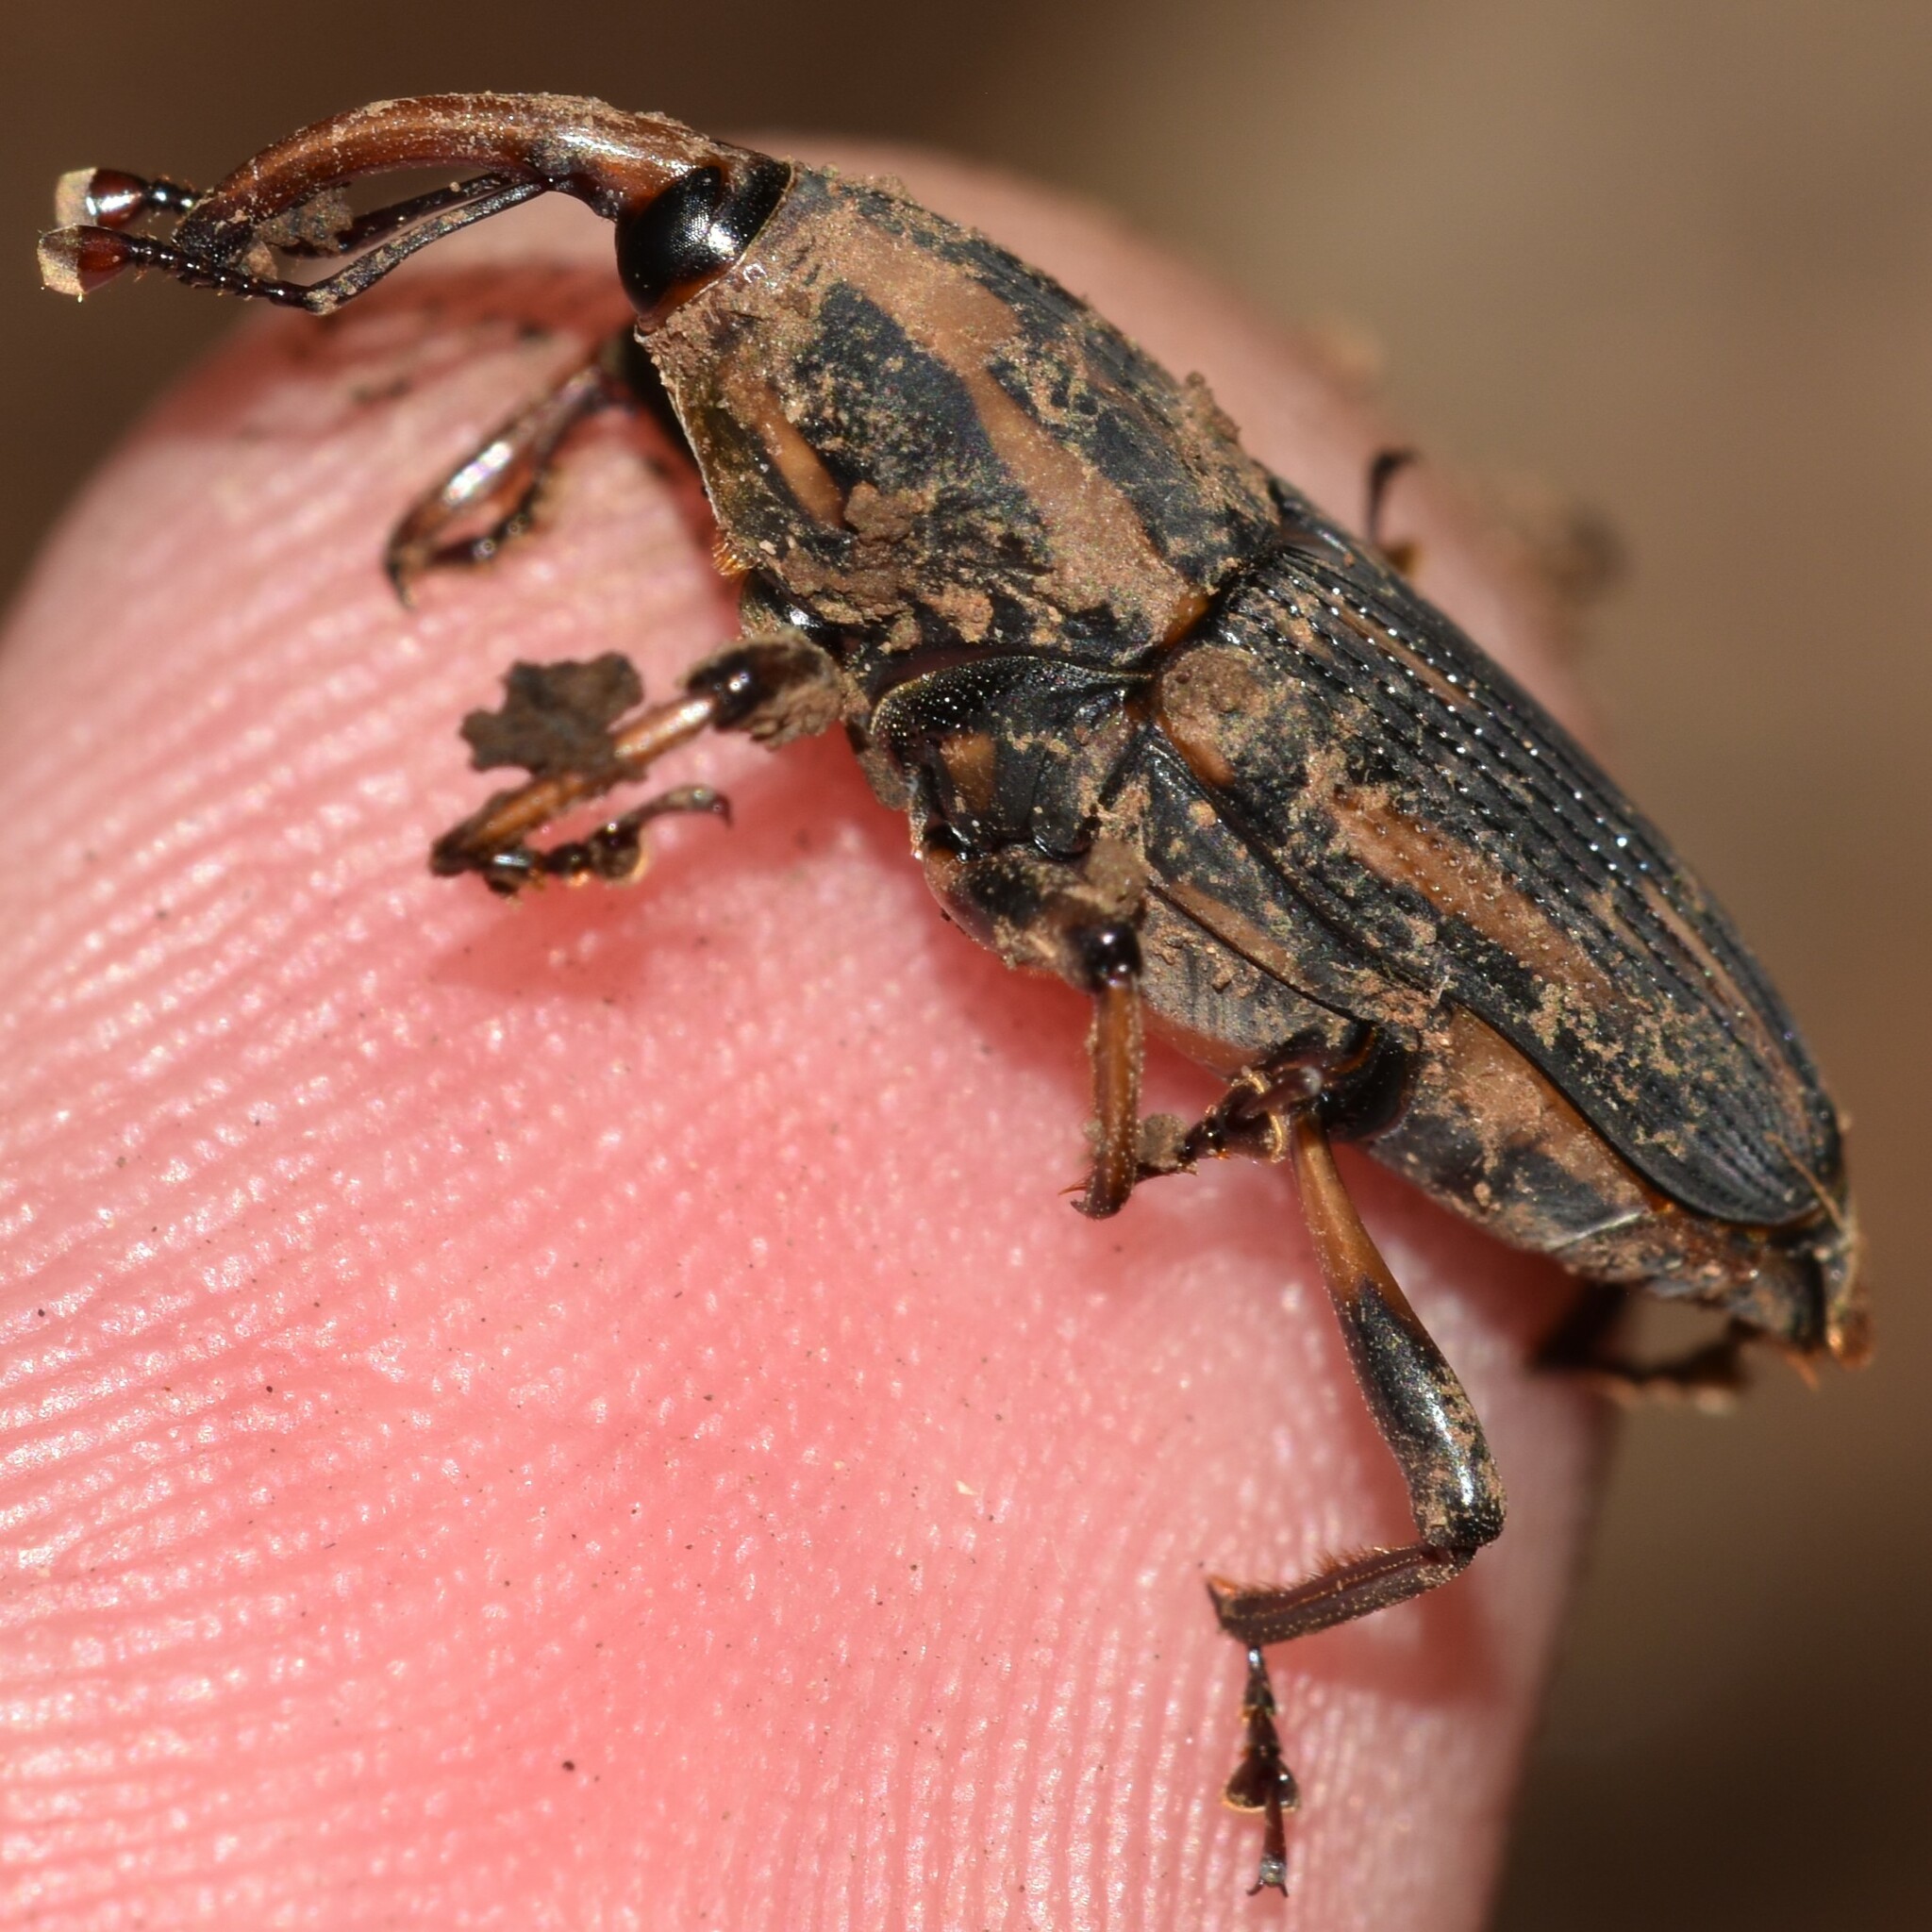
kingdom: Animalia
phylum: Arthropoda
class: Insecta
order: Coleoptera
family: Dryophthoridae
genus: Metamasius
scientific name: Metamasius hemipterus
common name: Weevil
